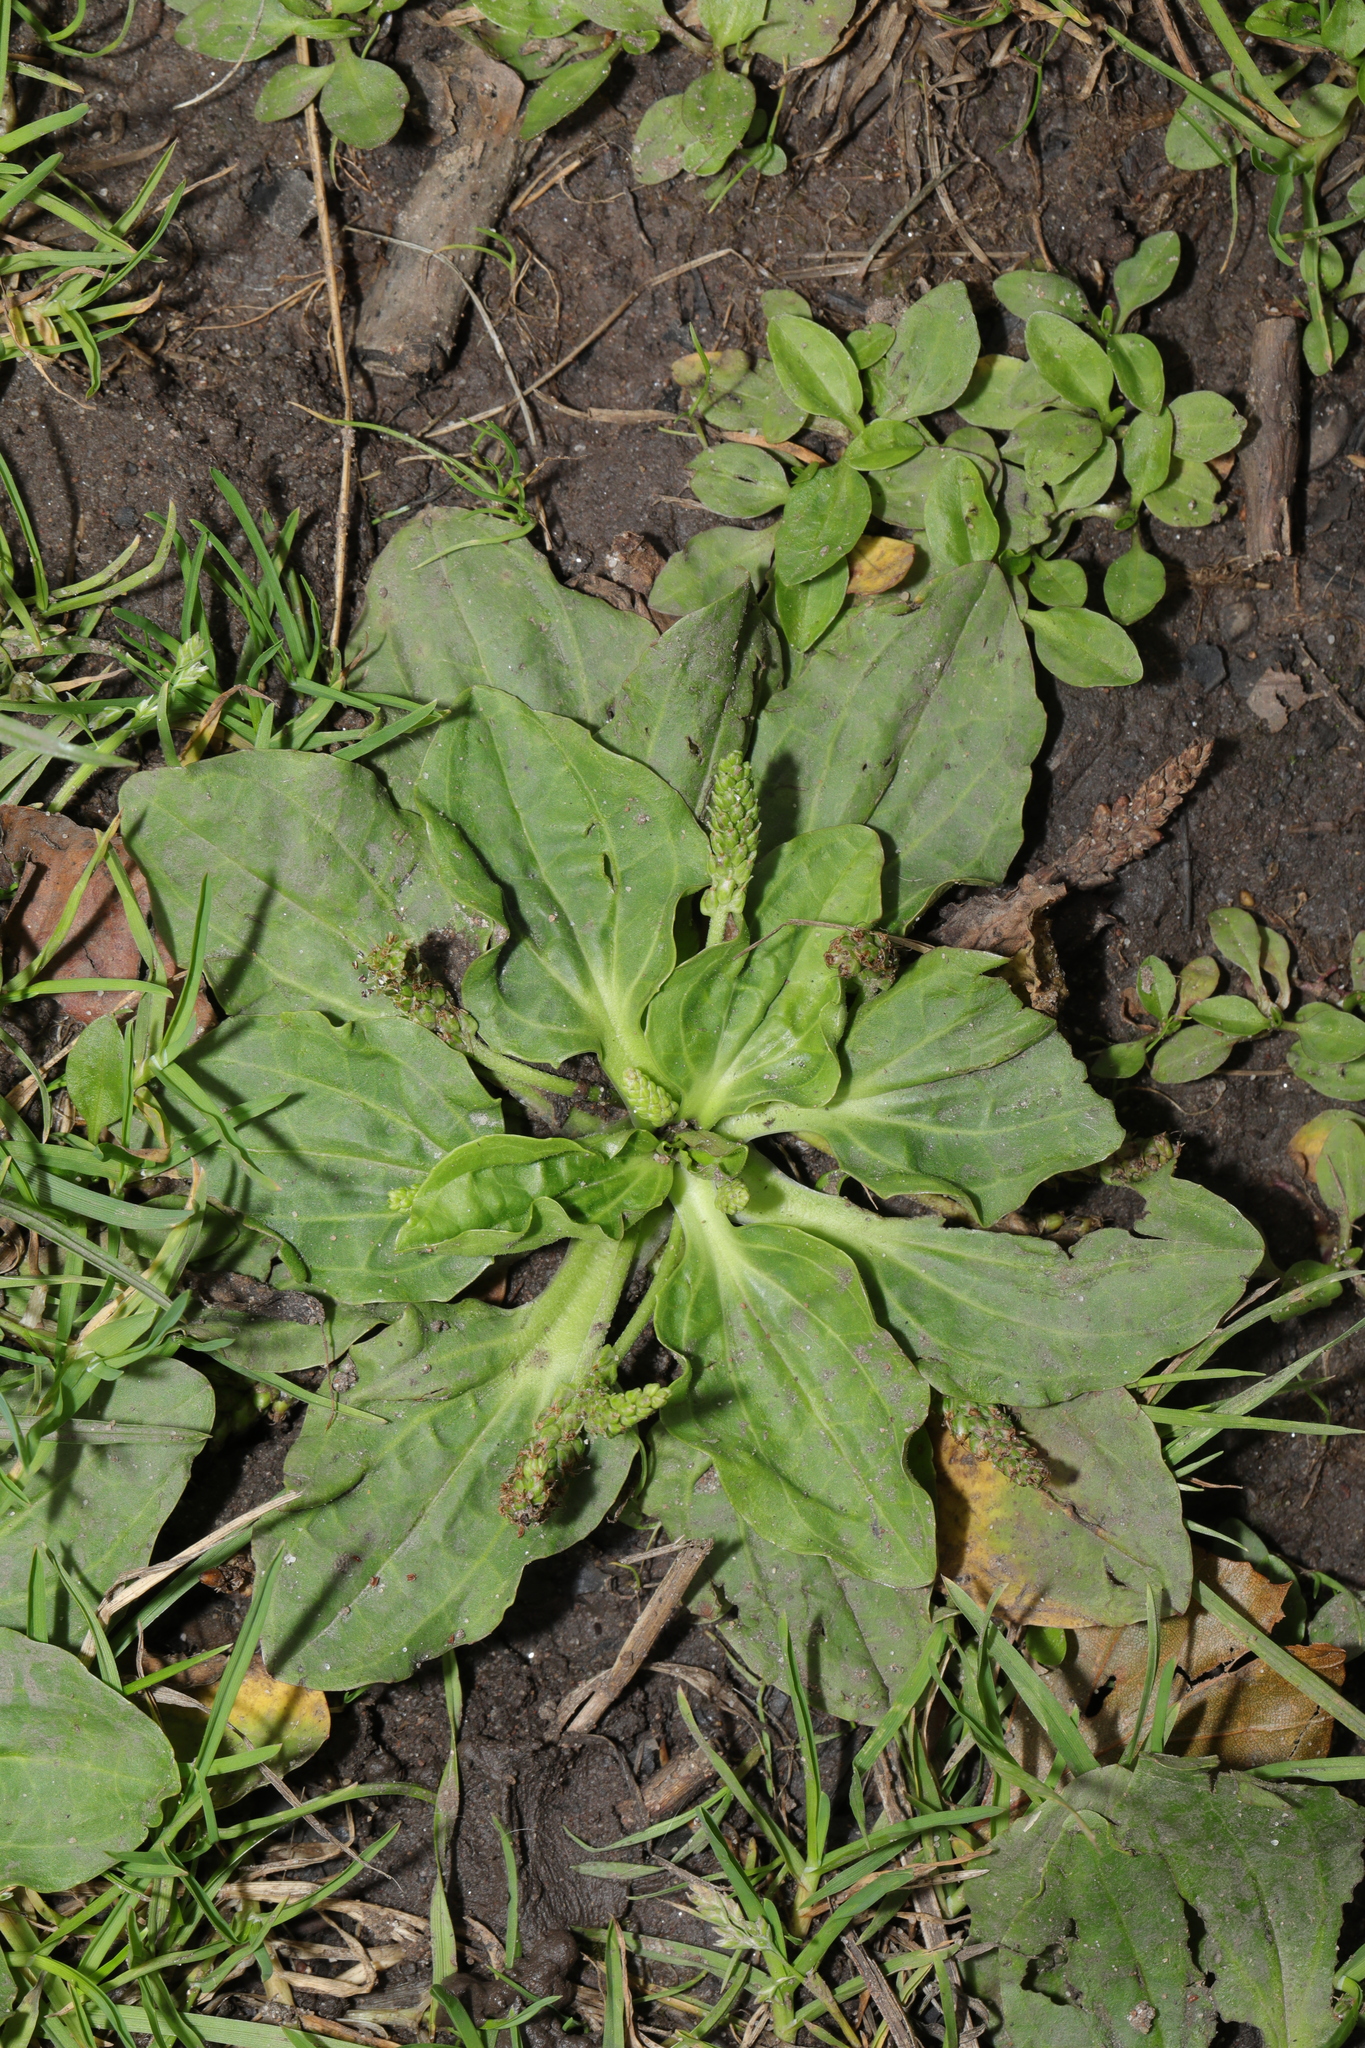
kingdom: Plantae
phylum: Tracheophyta
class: Magnoliopsida
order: Lamiales
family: Plantaginaceae
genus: Plantago
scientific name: Plantago major
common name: Common plantain
